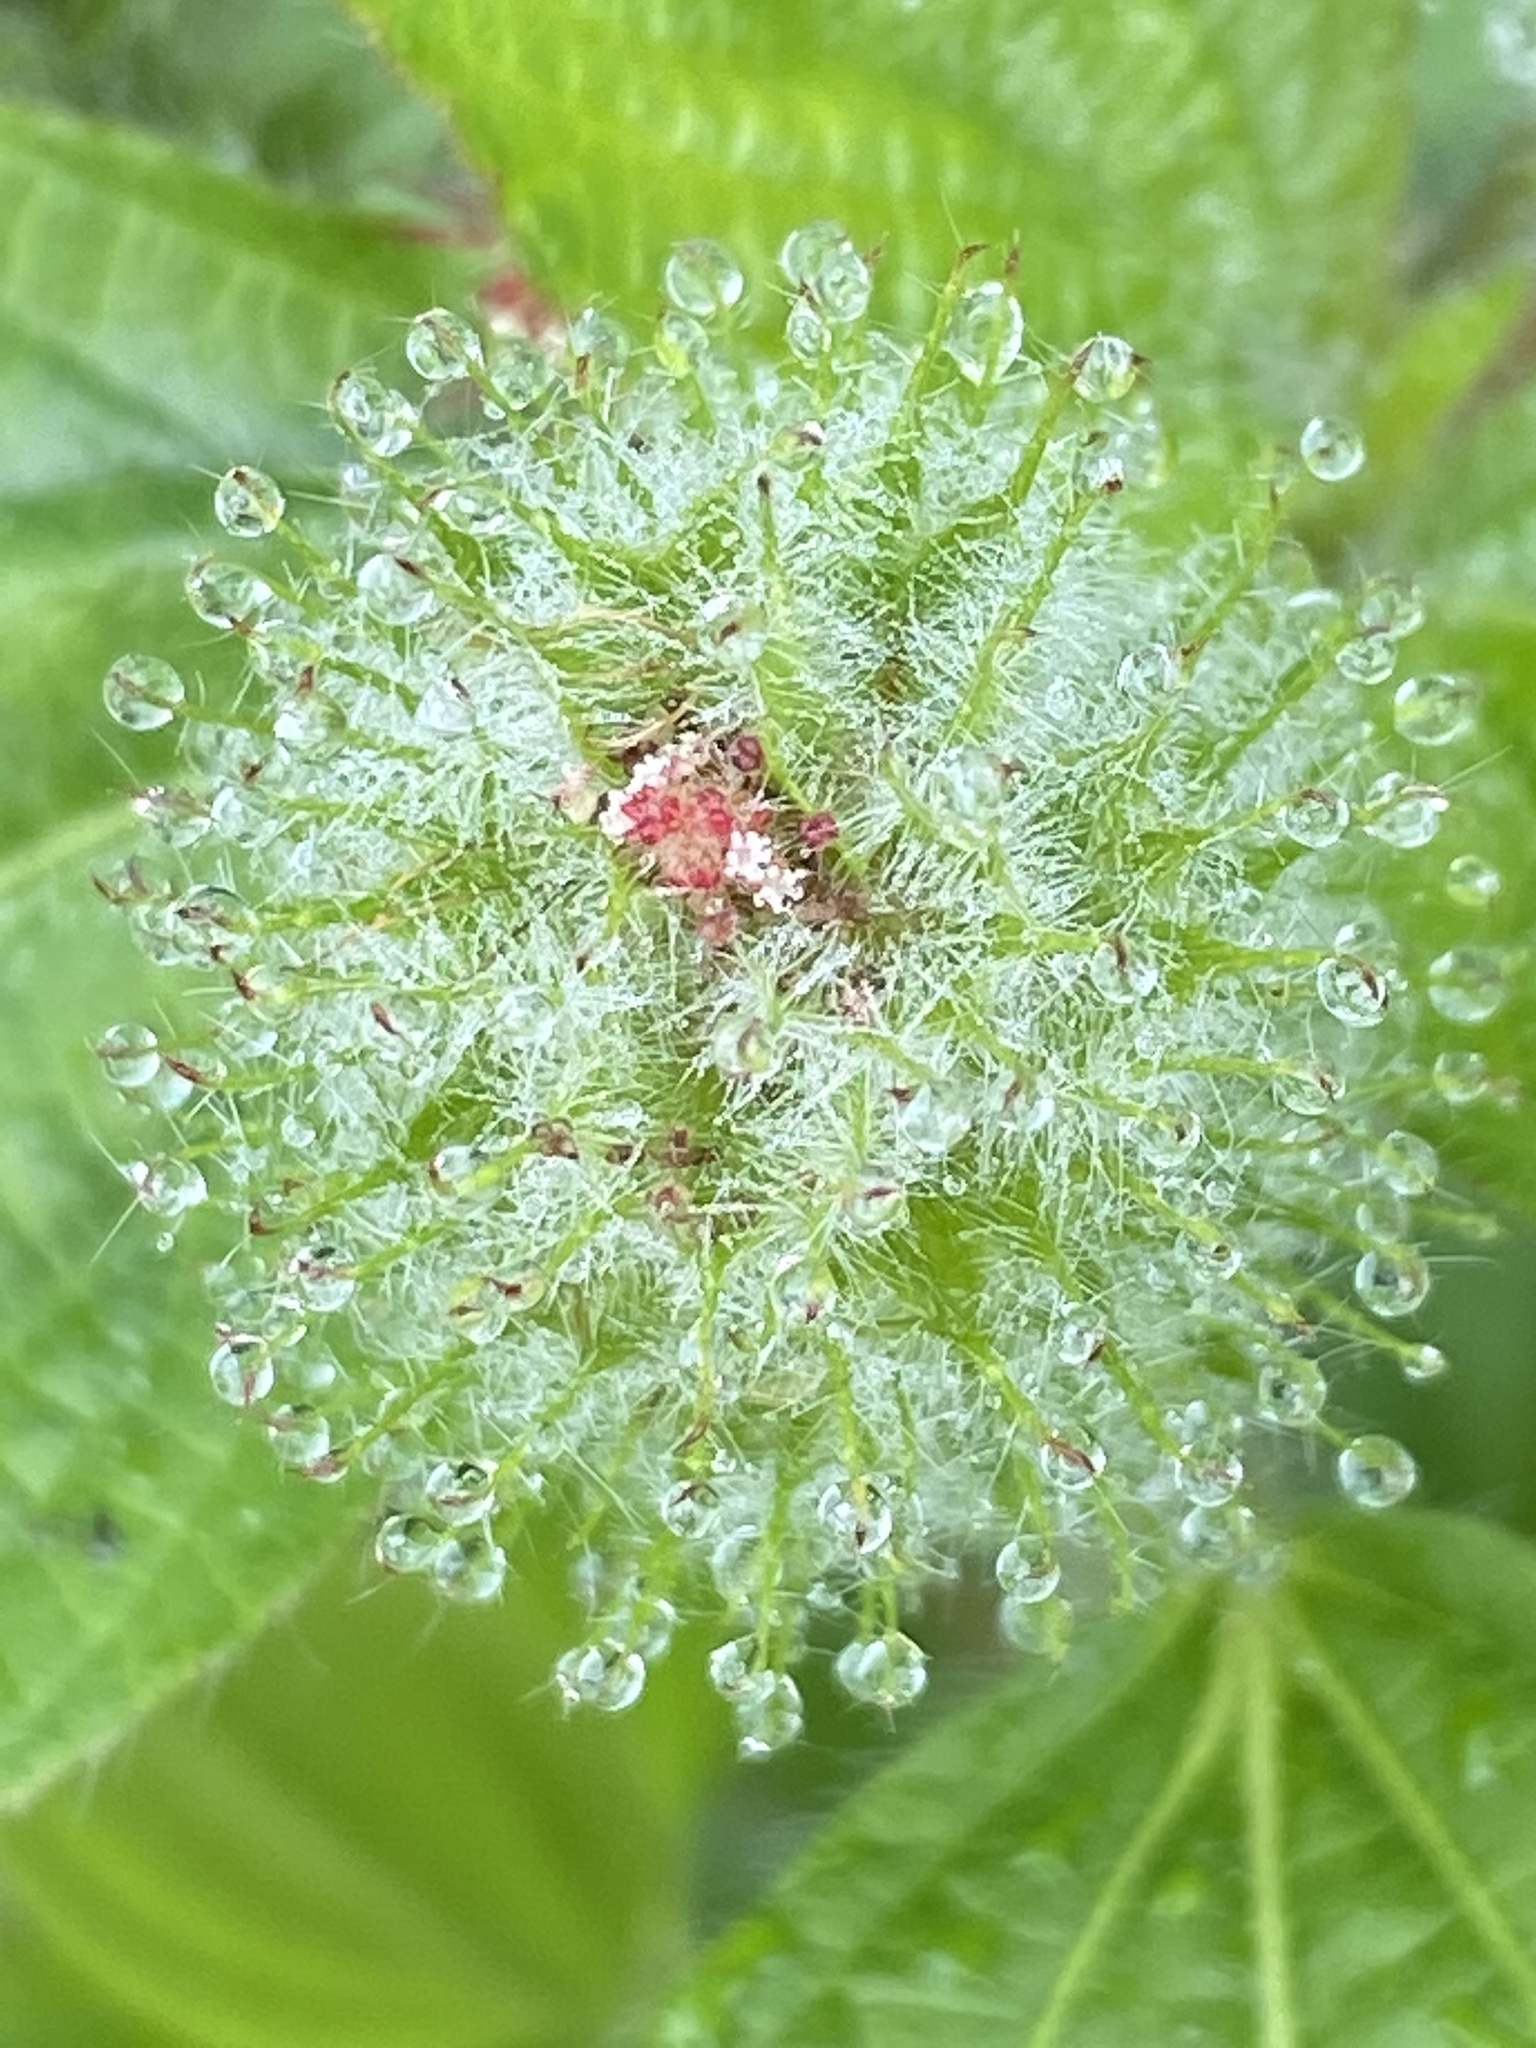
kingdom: Plantae
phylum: Tracheophyta
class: Magnoliopsida
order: Malpighiales
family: Euphorbiaceae
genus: Acalypha
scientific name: Acalypha poiretii
